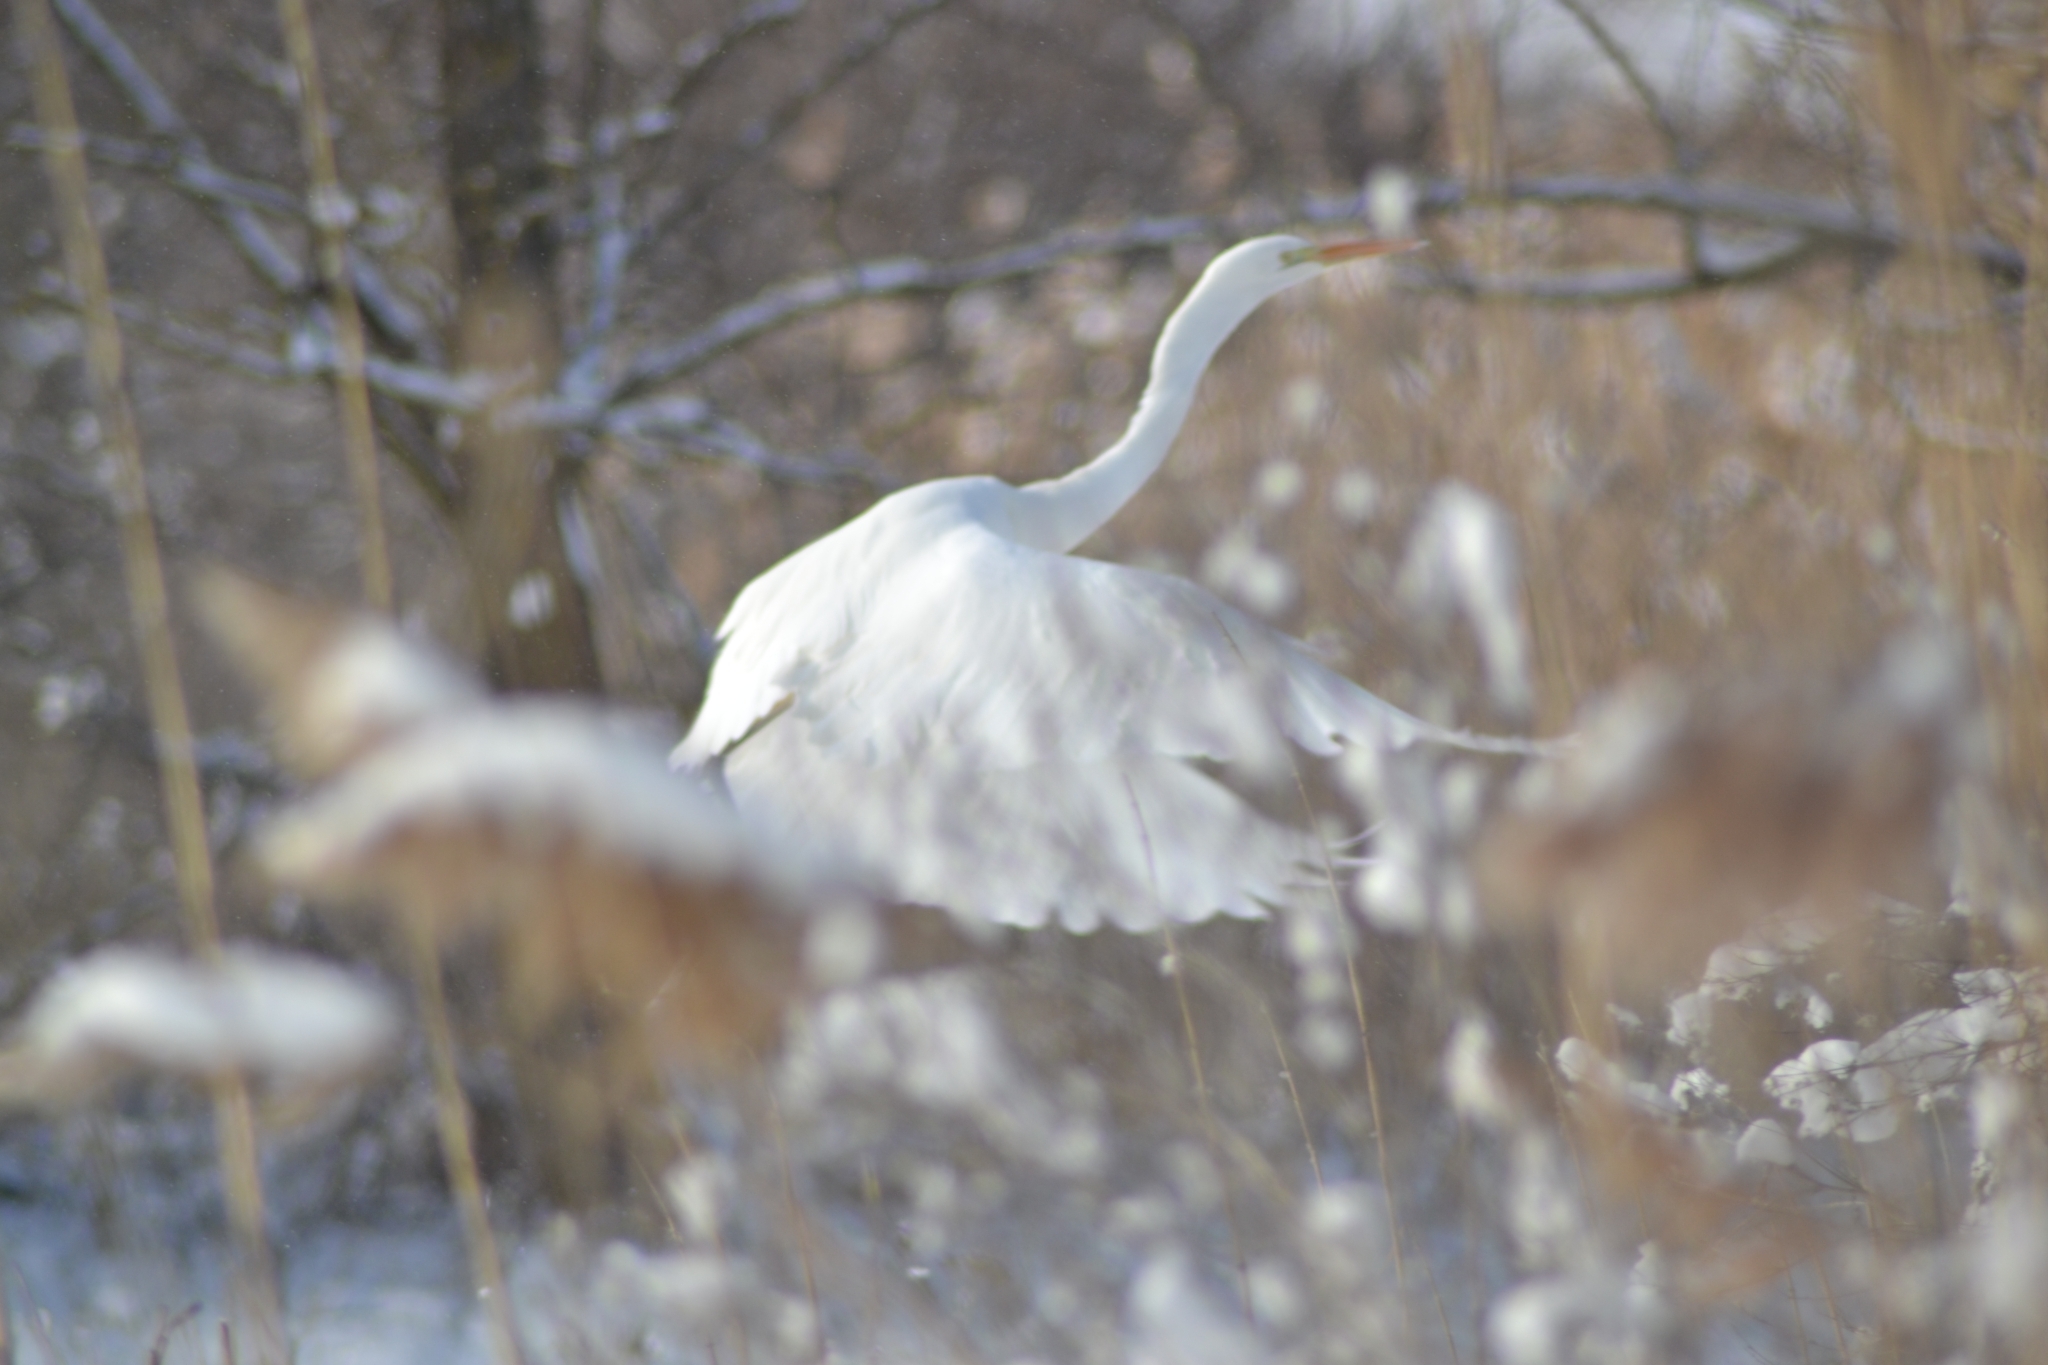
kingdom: Animalia
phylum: Chordata
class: Aves
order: Pelecaniformes
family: Ardeidae
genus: Ardea
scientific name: Ardea alba
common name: Great egret
